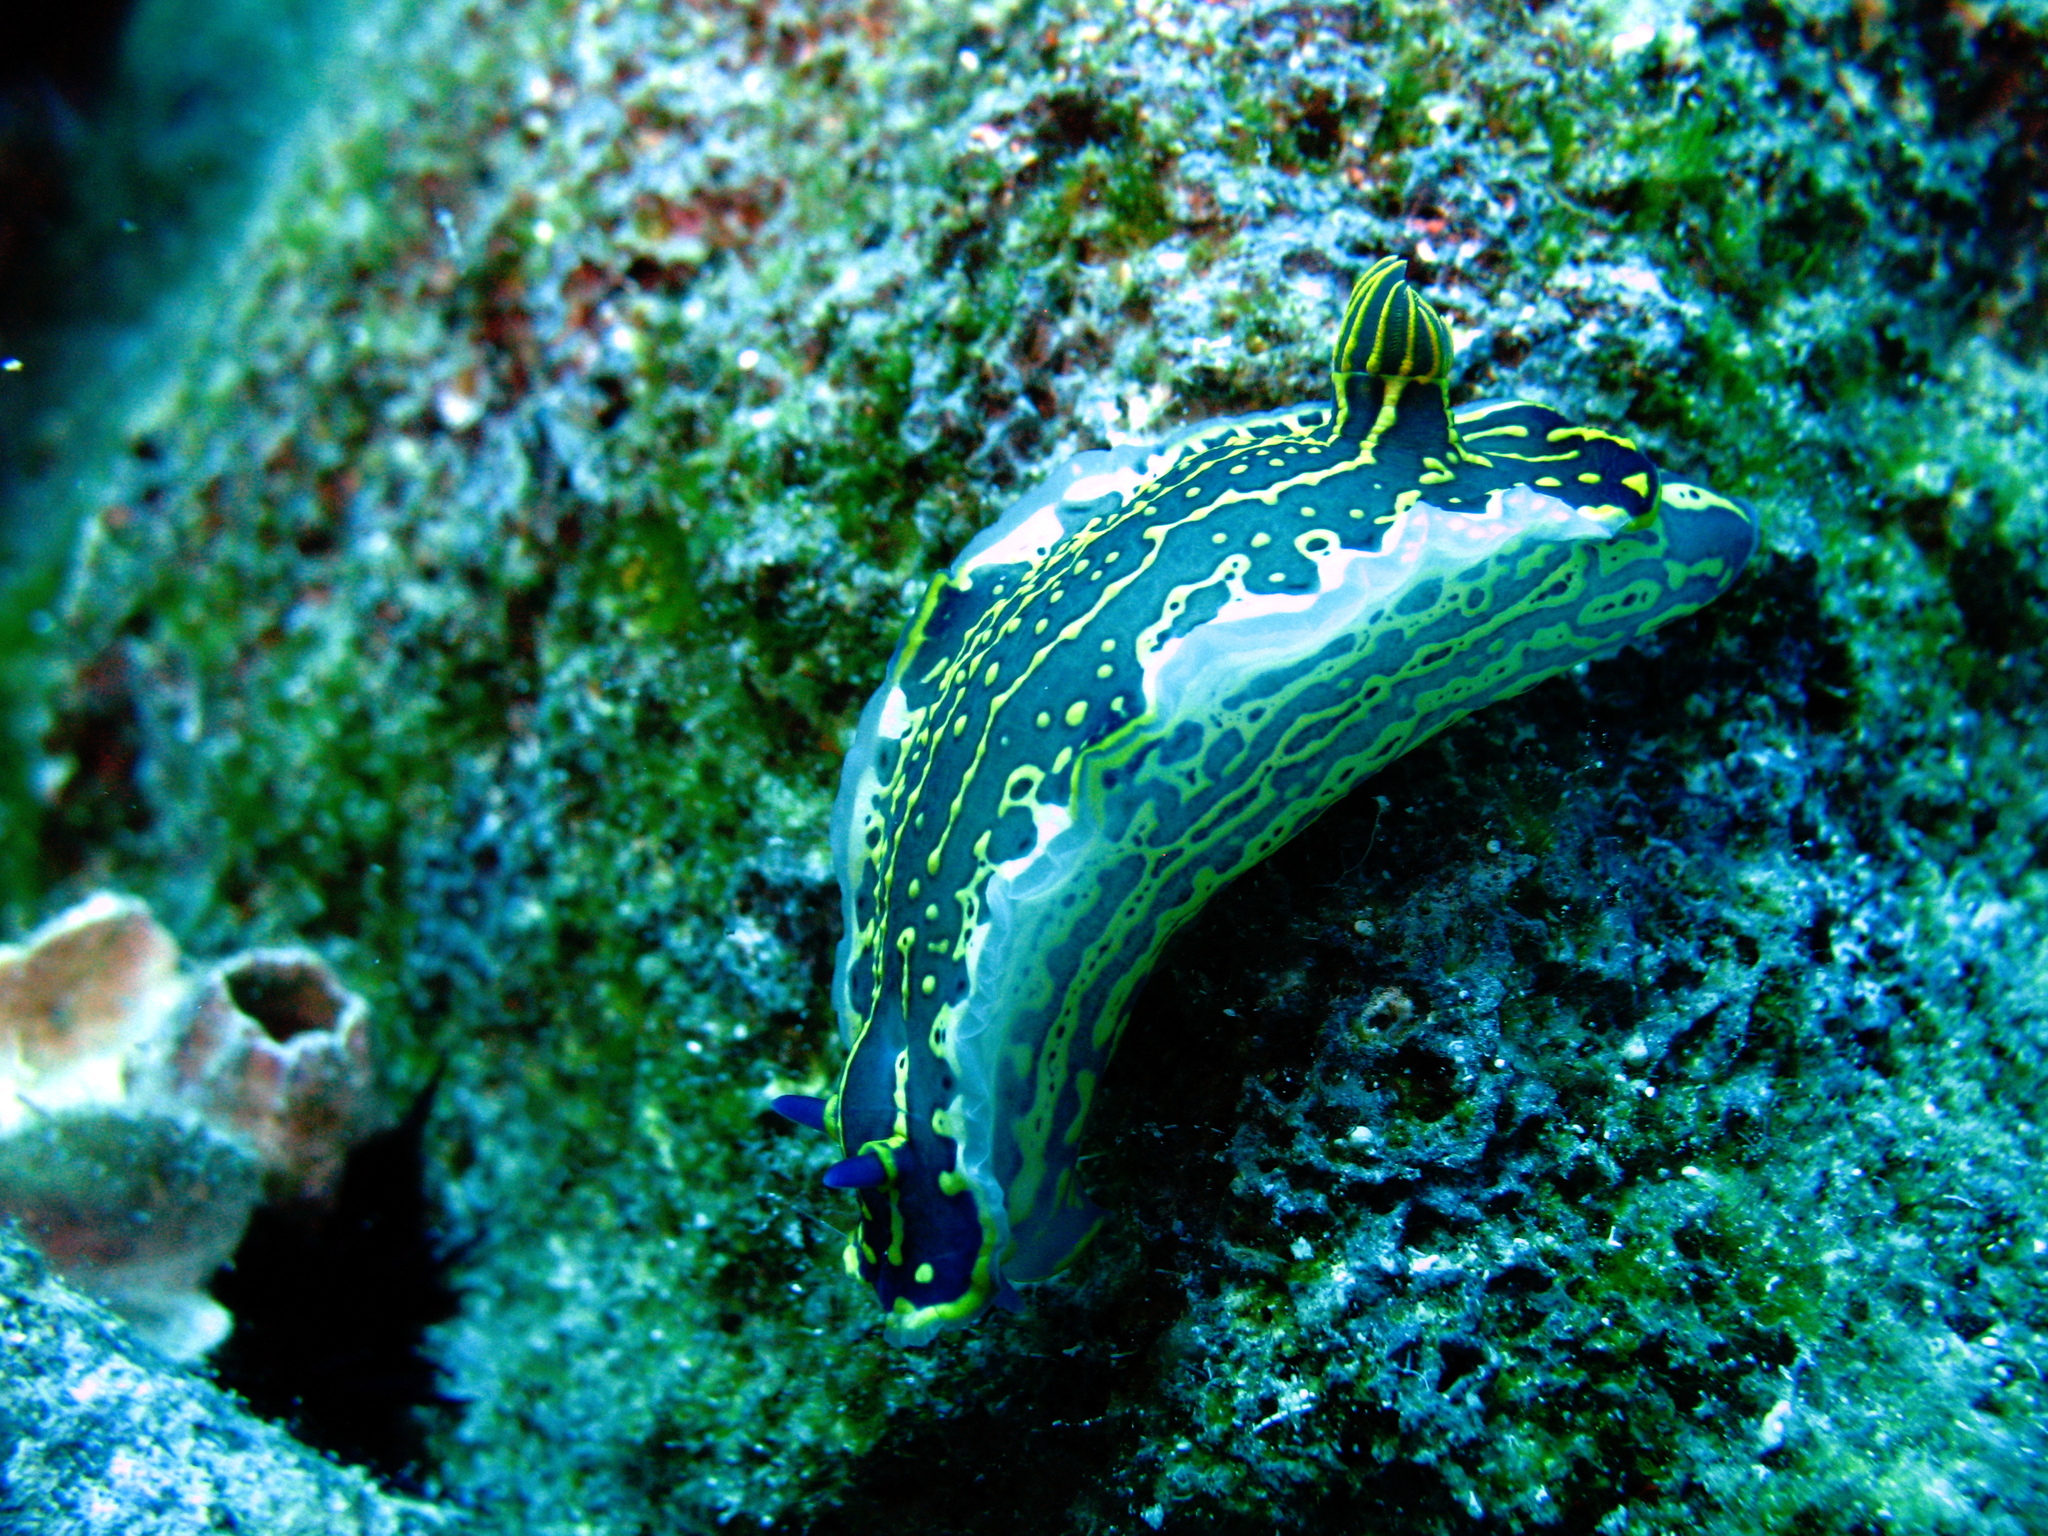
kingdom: Animalia
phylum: Mollusca
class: Gastropoda
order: Nudibranchia
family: Chromodorididae
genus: Felimare
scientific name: Felimare picta
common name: Giant doris
